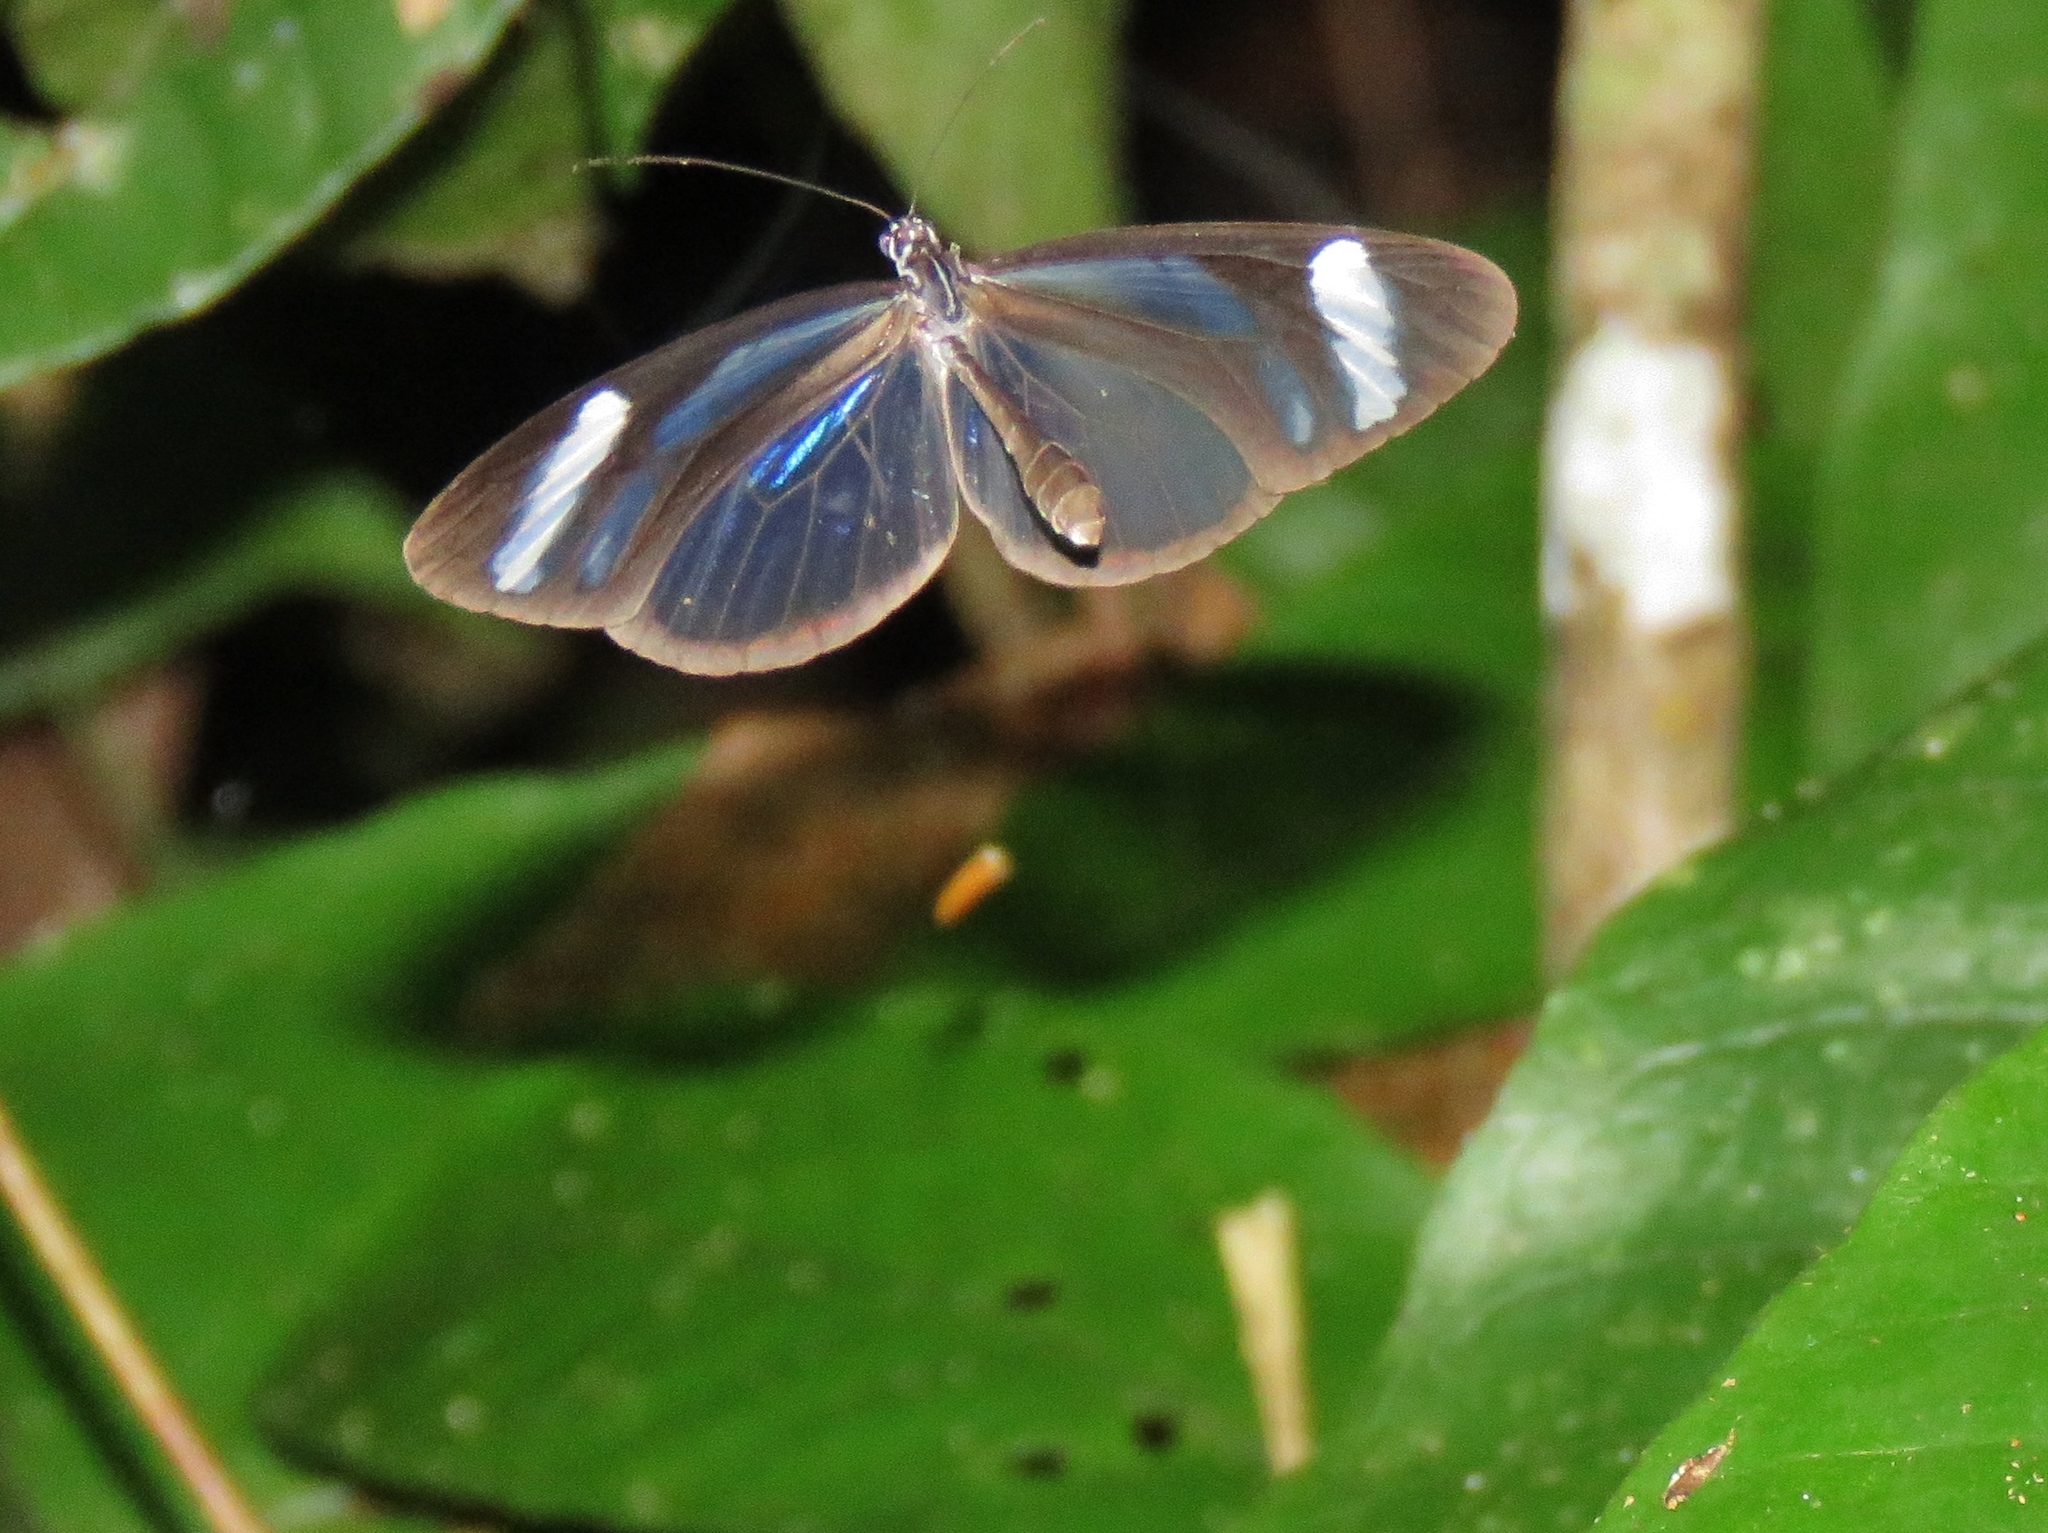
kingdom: Animalia
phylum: Arthropoda
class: Insecta
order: Lepidoptera
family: Pieridae
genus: Dismorphia
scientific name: Dismorphia theucharila
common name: Clearwing mimic-white
